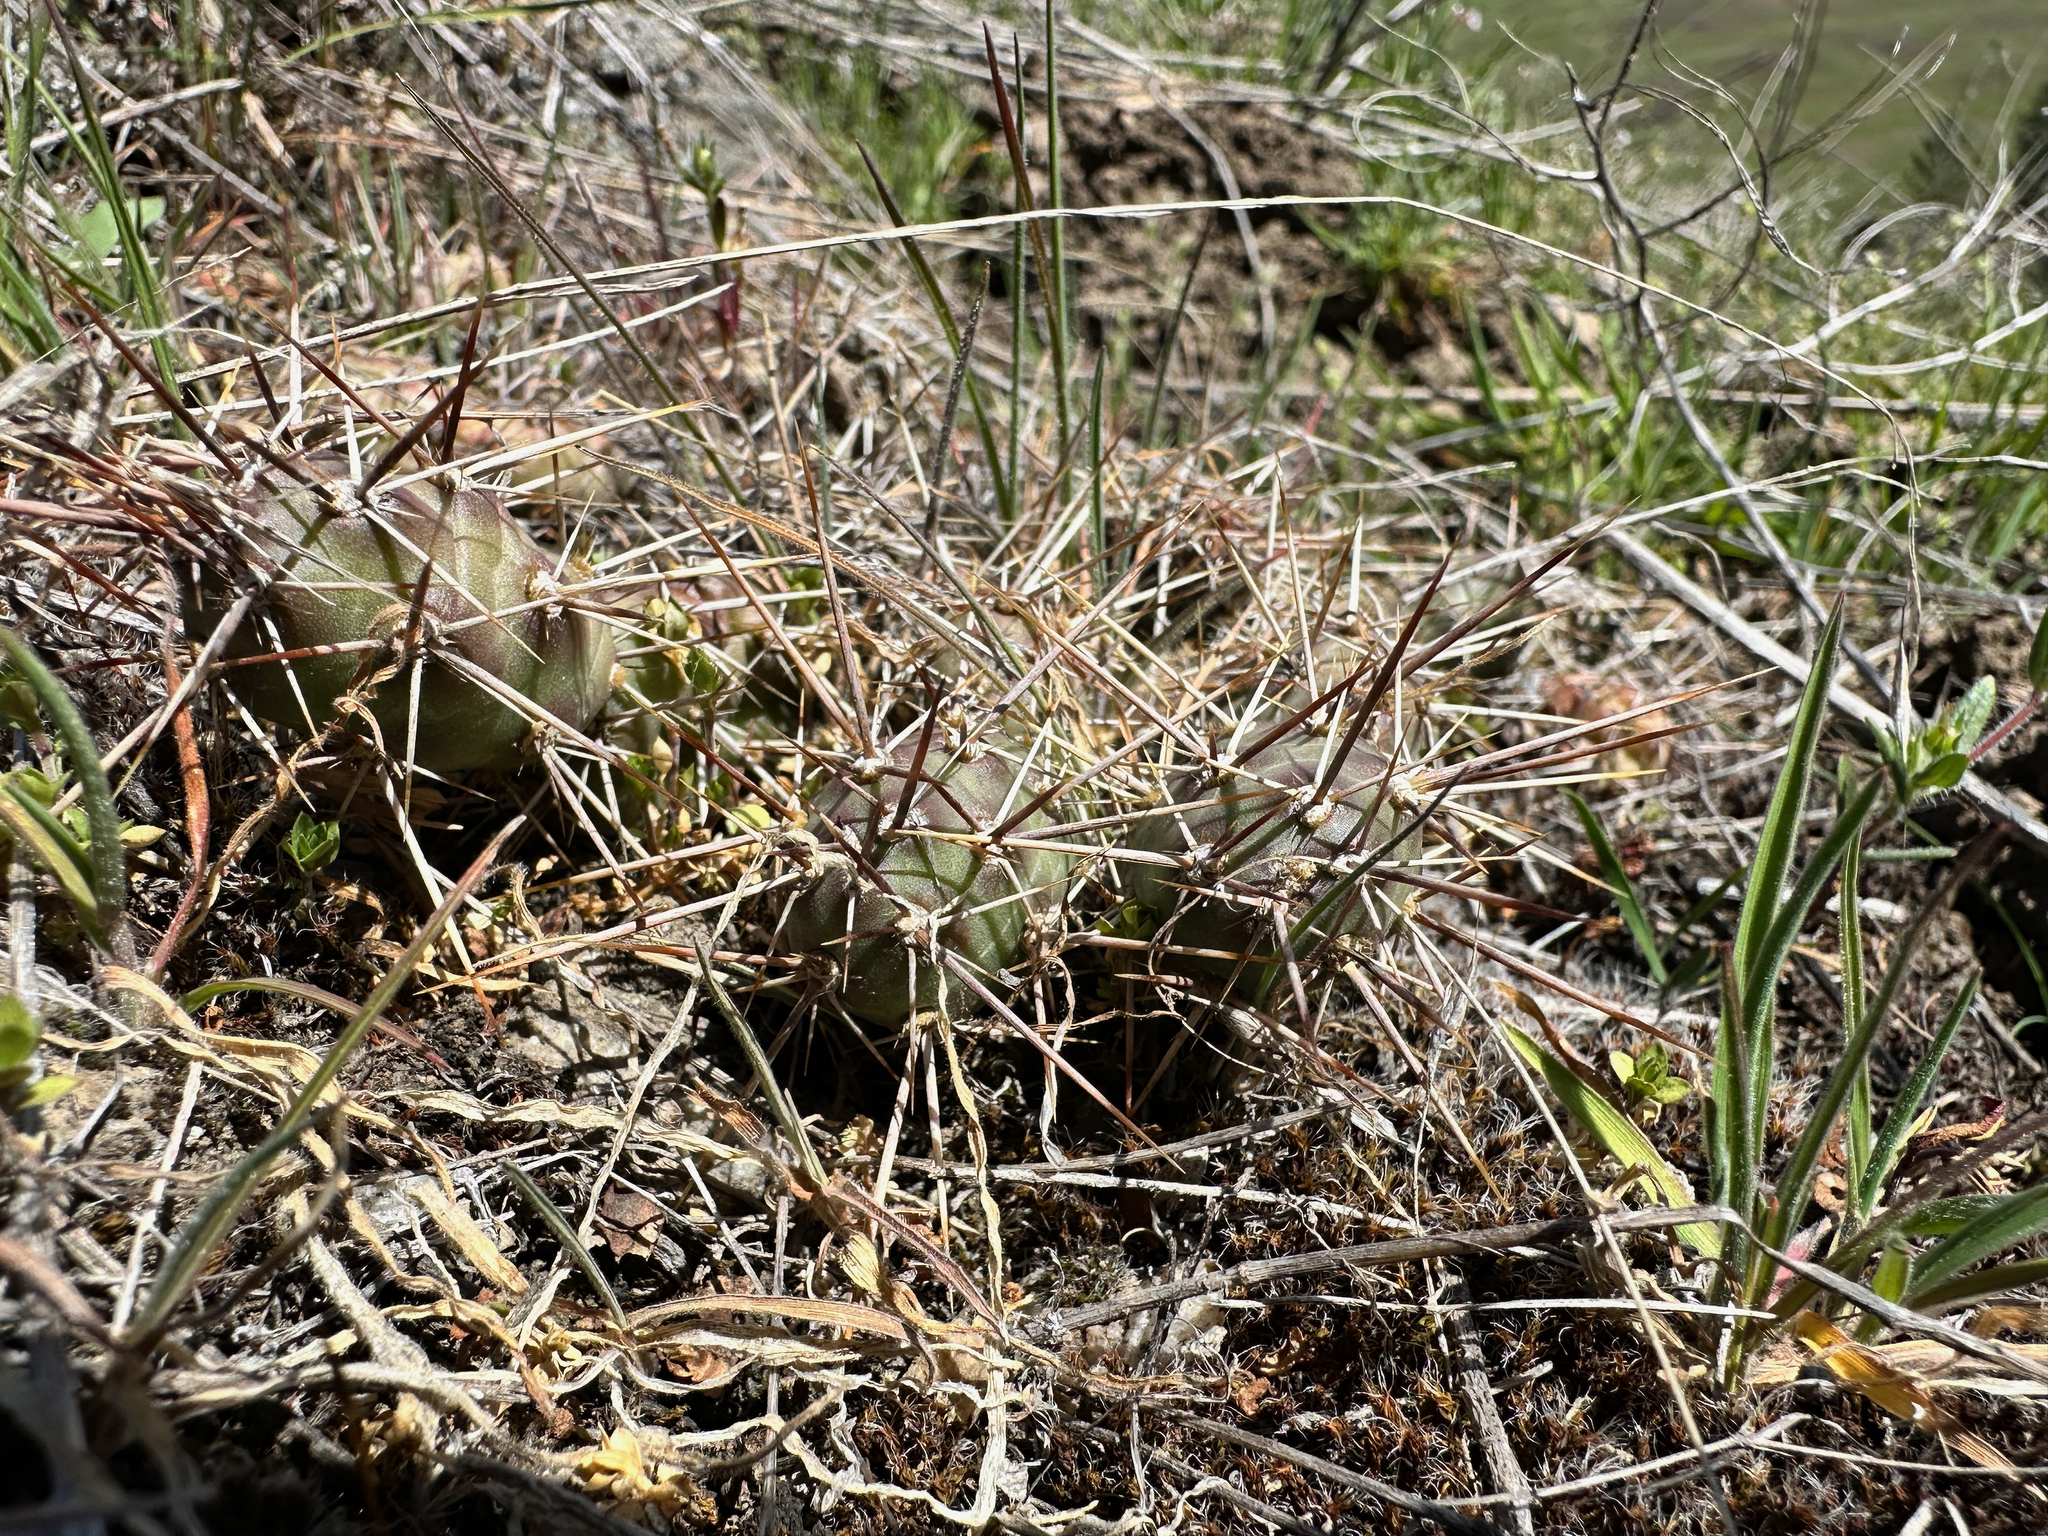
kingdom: Plantae
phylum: Tracheophyta
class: Magnoliopsida
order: Caryophyllales
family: Cactaceae
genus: Opuntia
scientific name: Opuntia fragilis
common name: Brittle cactus
